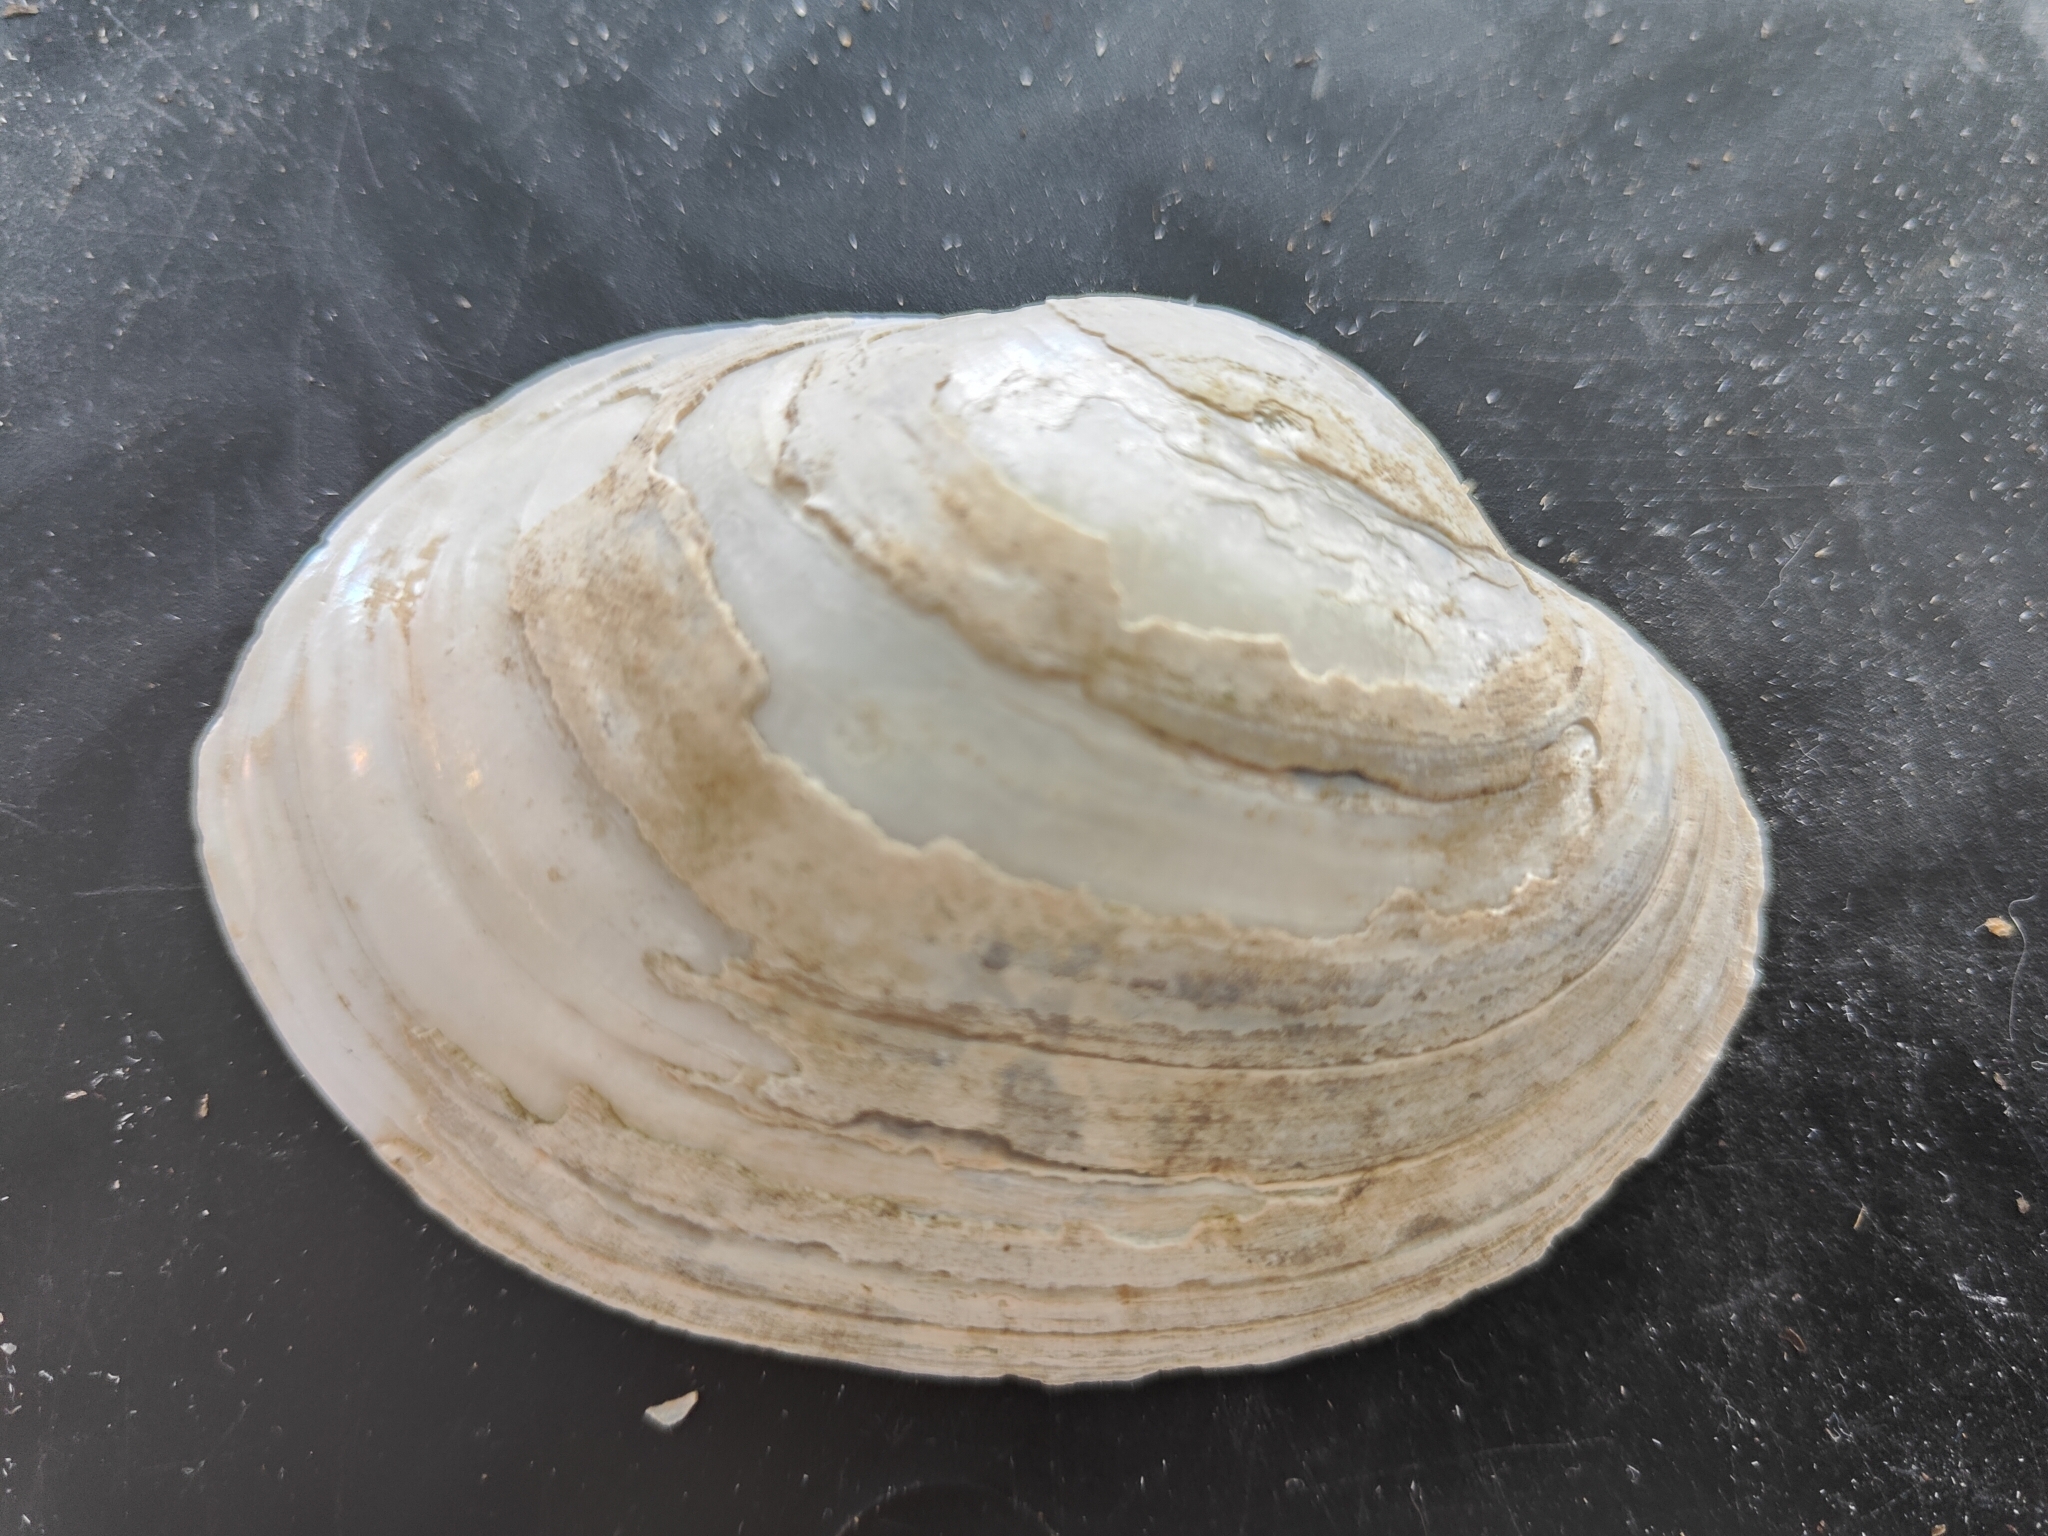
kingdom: Animalia
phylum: Mollusca
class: Bivalvia
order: Unionida
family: Unionidae
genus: Lampsilis
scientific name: Lampsilis cardium
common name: Plain pocketbook
